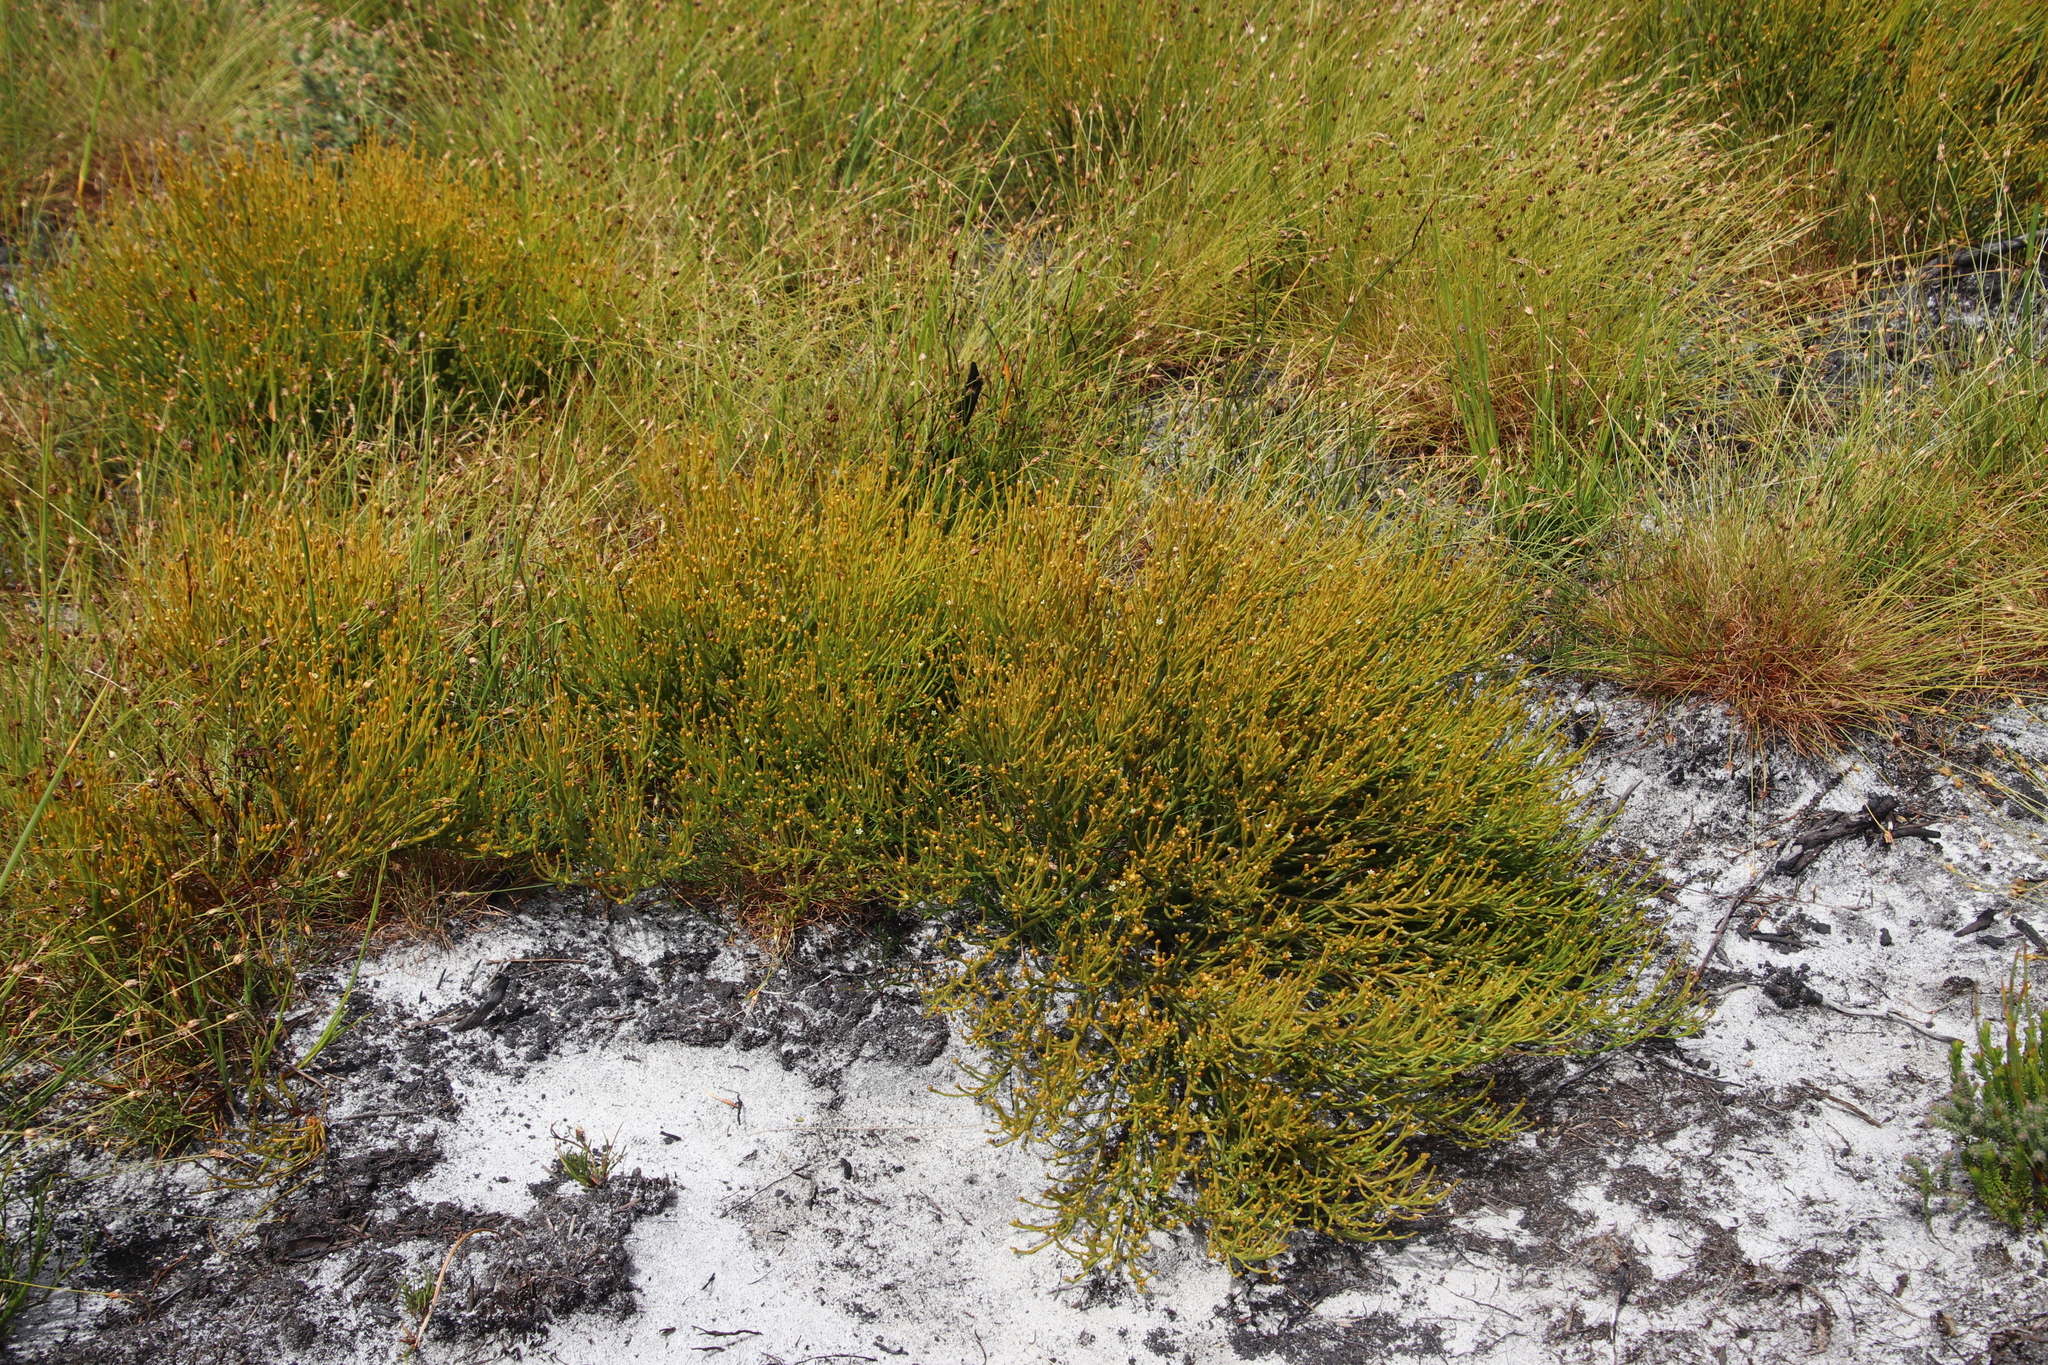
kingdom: Plantae
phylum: Tracheophyta
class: Magnoliopsida
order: Santalales
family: Thesiaceae
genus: Thesium
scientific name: Thesium nudicaule
